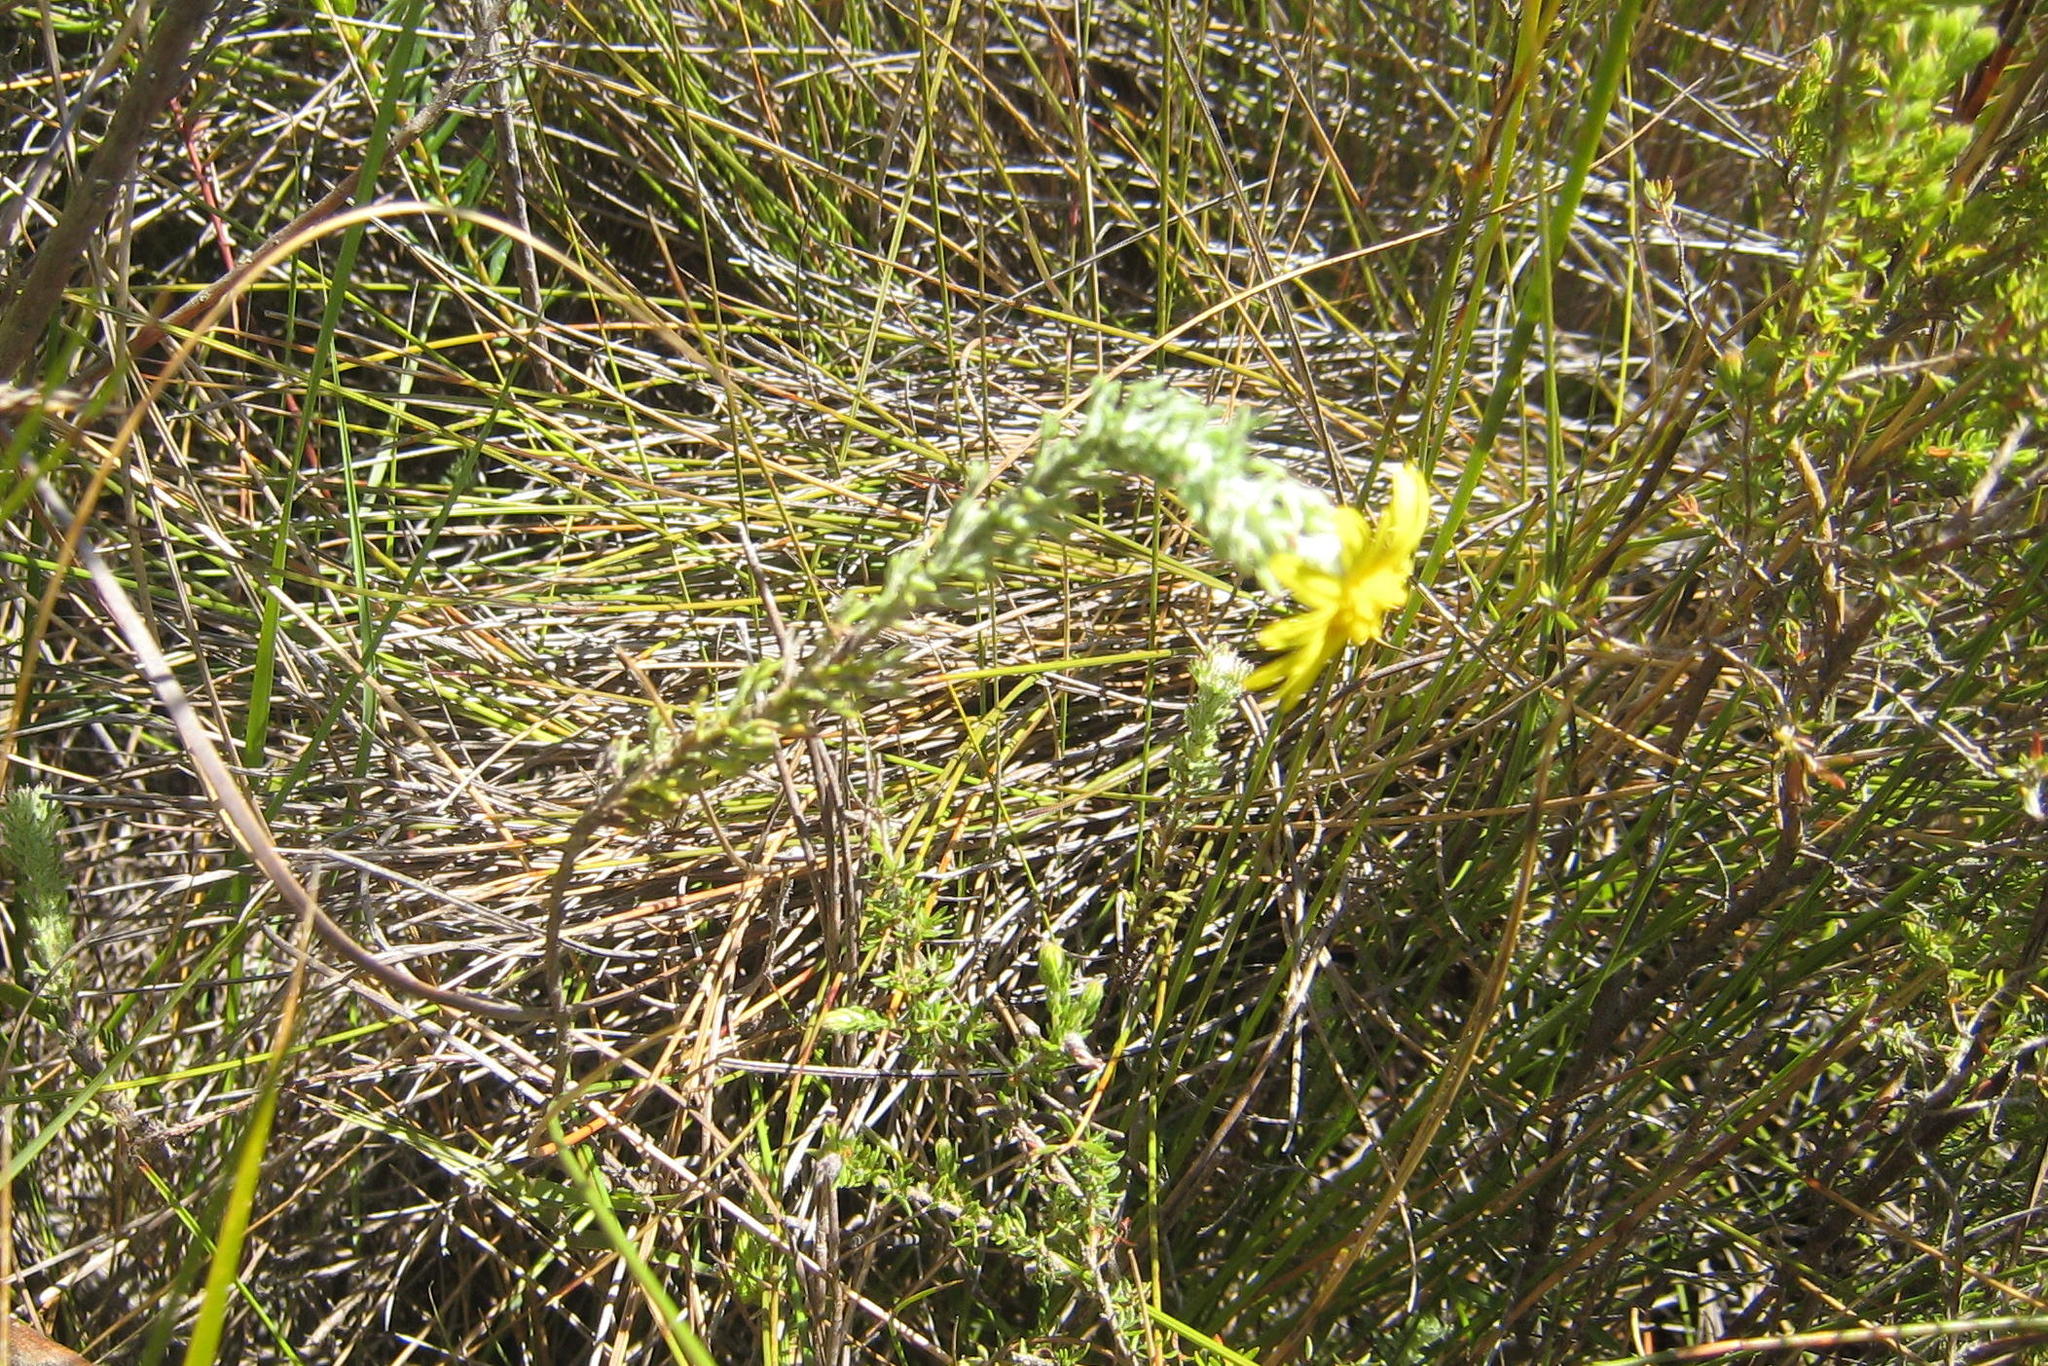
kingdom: Plantae
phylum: Tracheophyta
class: Magnoliopsida
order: Asterales
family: Asteraceae
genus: Ursinia
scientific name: Ursinia hispida
